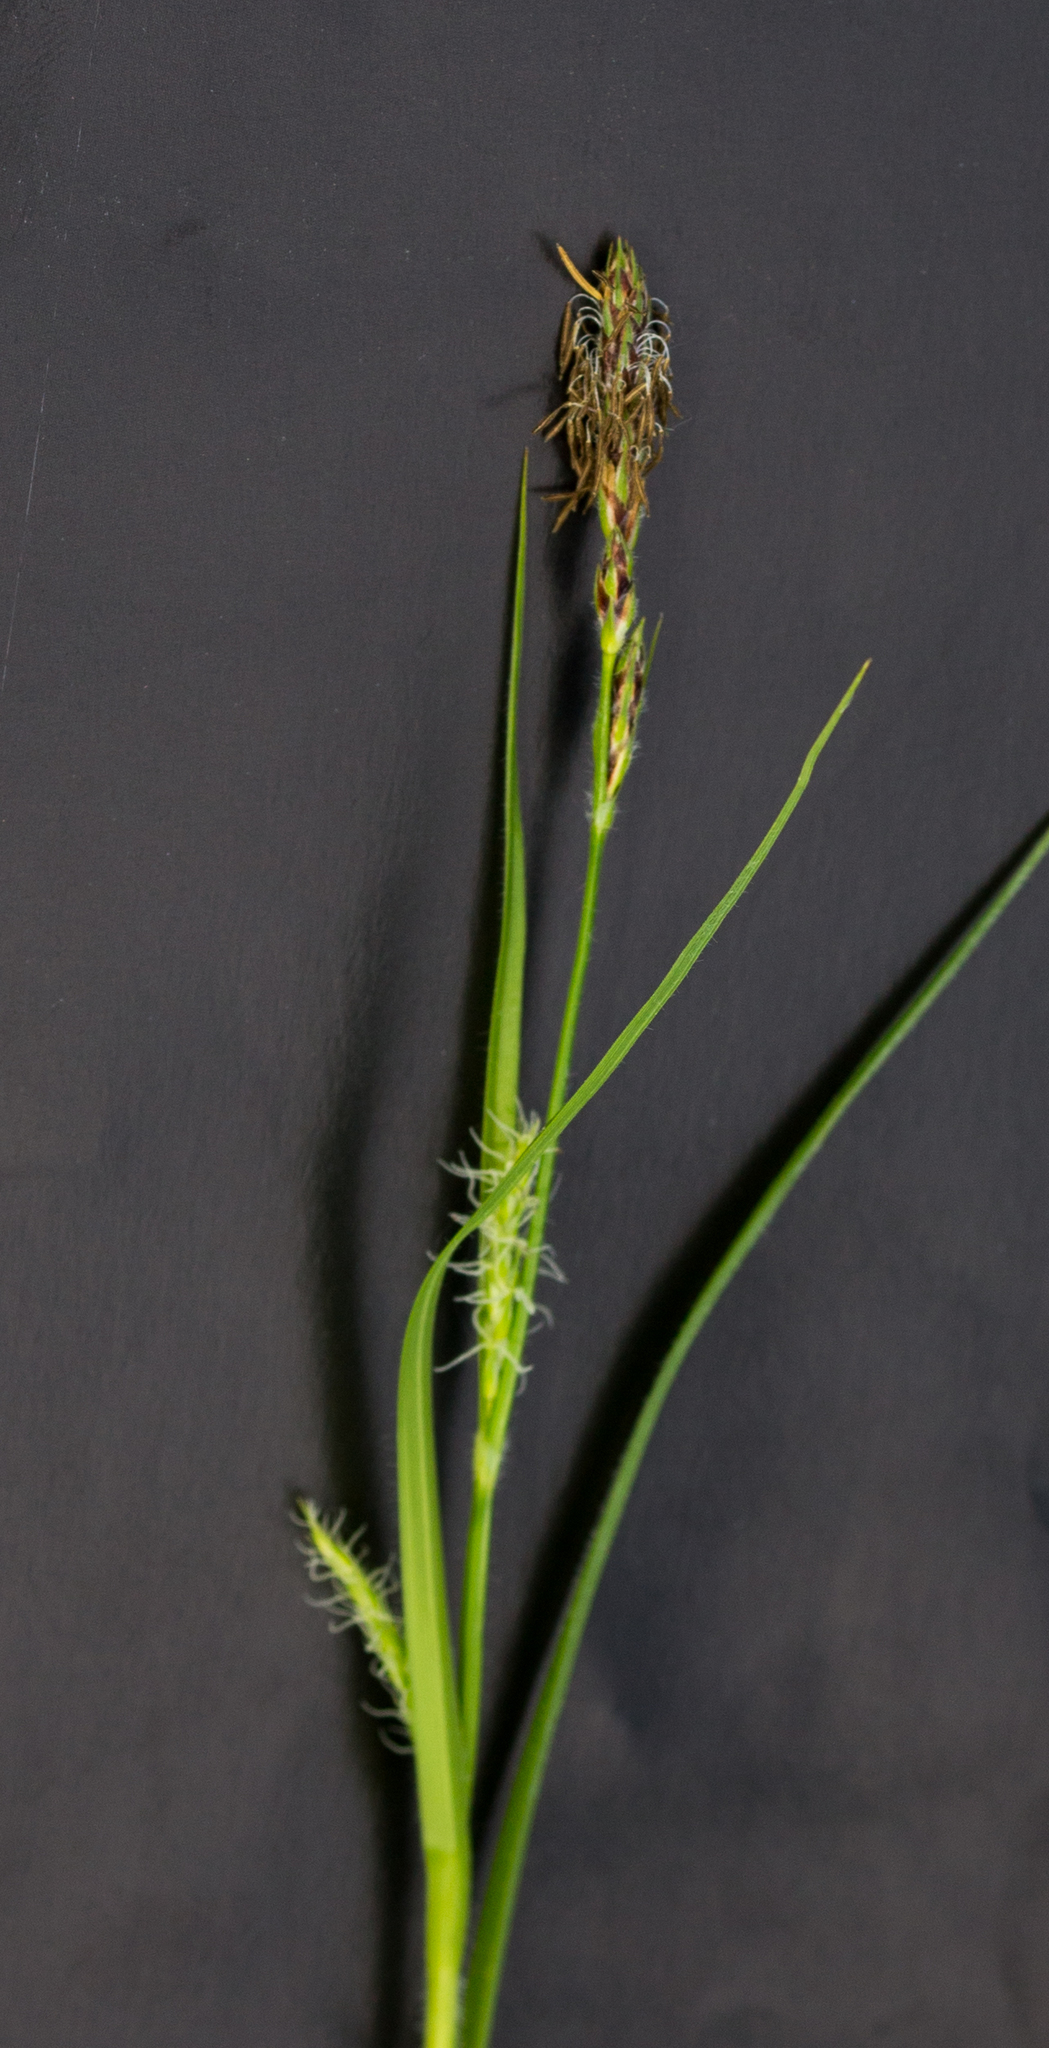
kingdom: Plantae
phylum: Tracheophyta
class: Liliopsida
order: Poales
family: Cyperaceae
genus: Carex
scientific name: Carex hirta
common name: Hairy sedge
